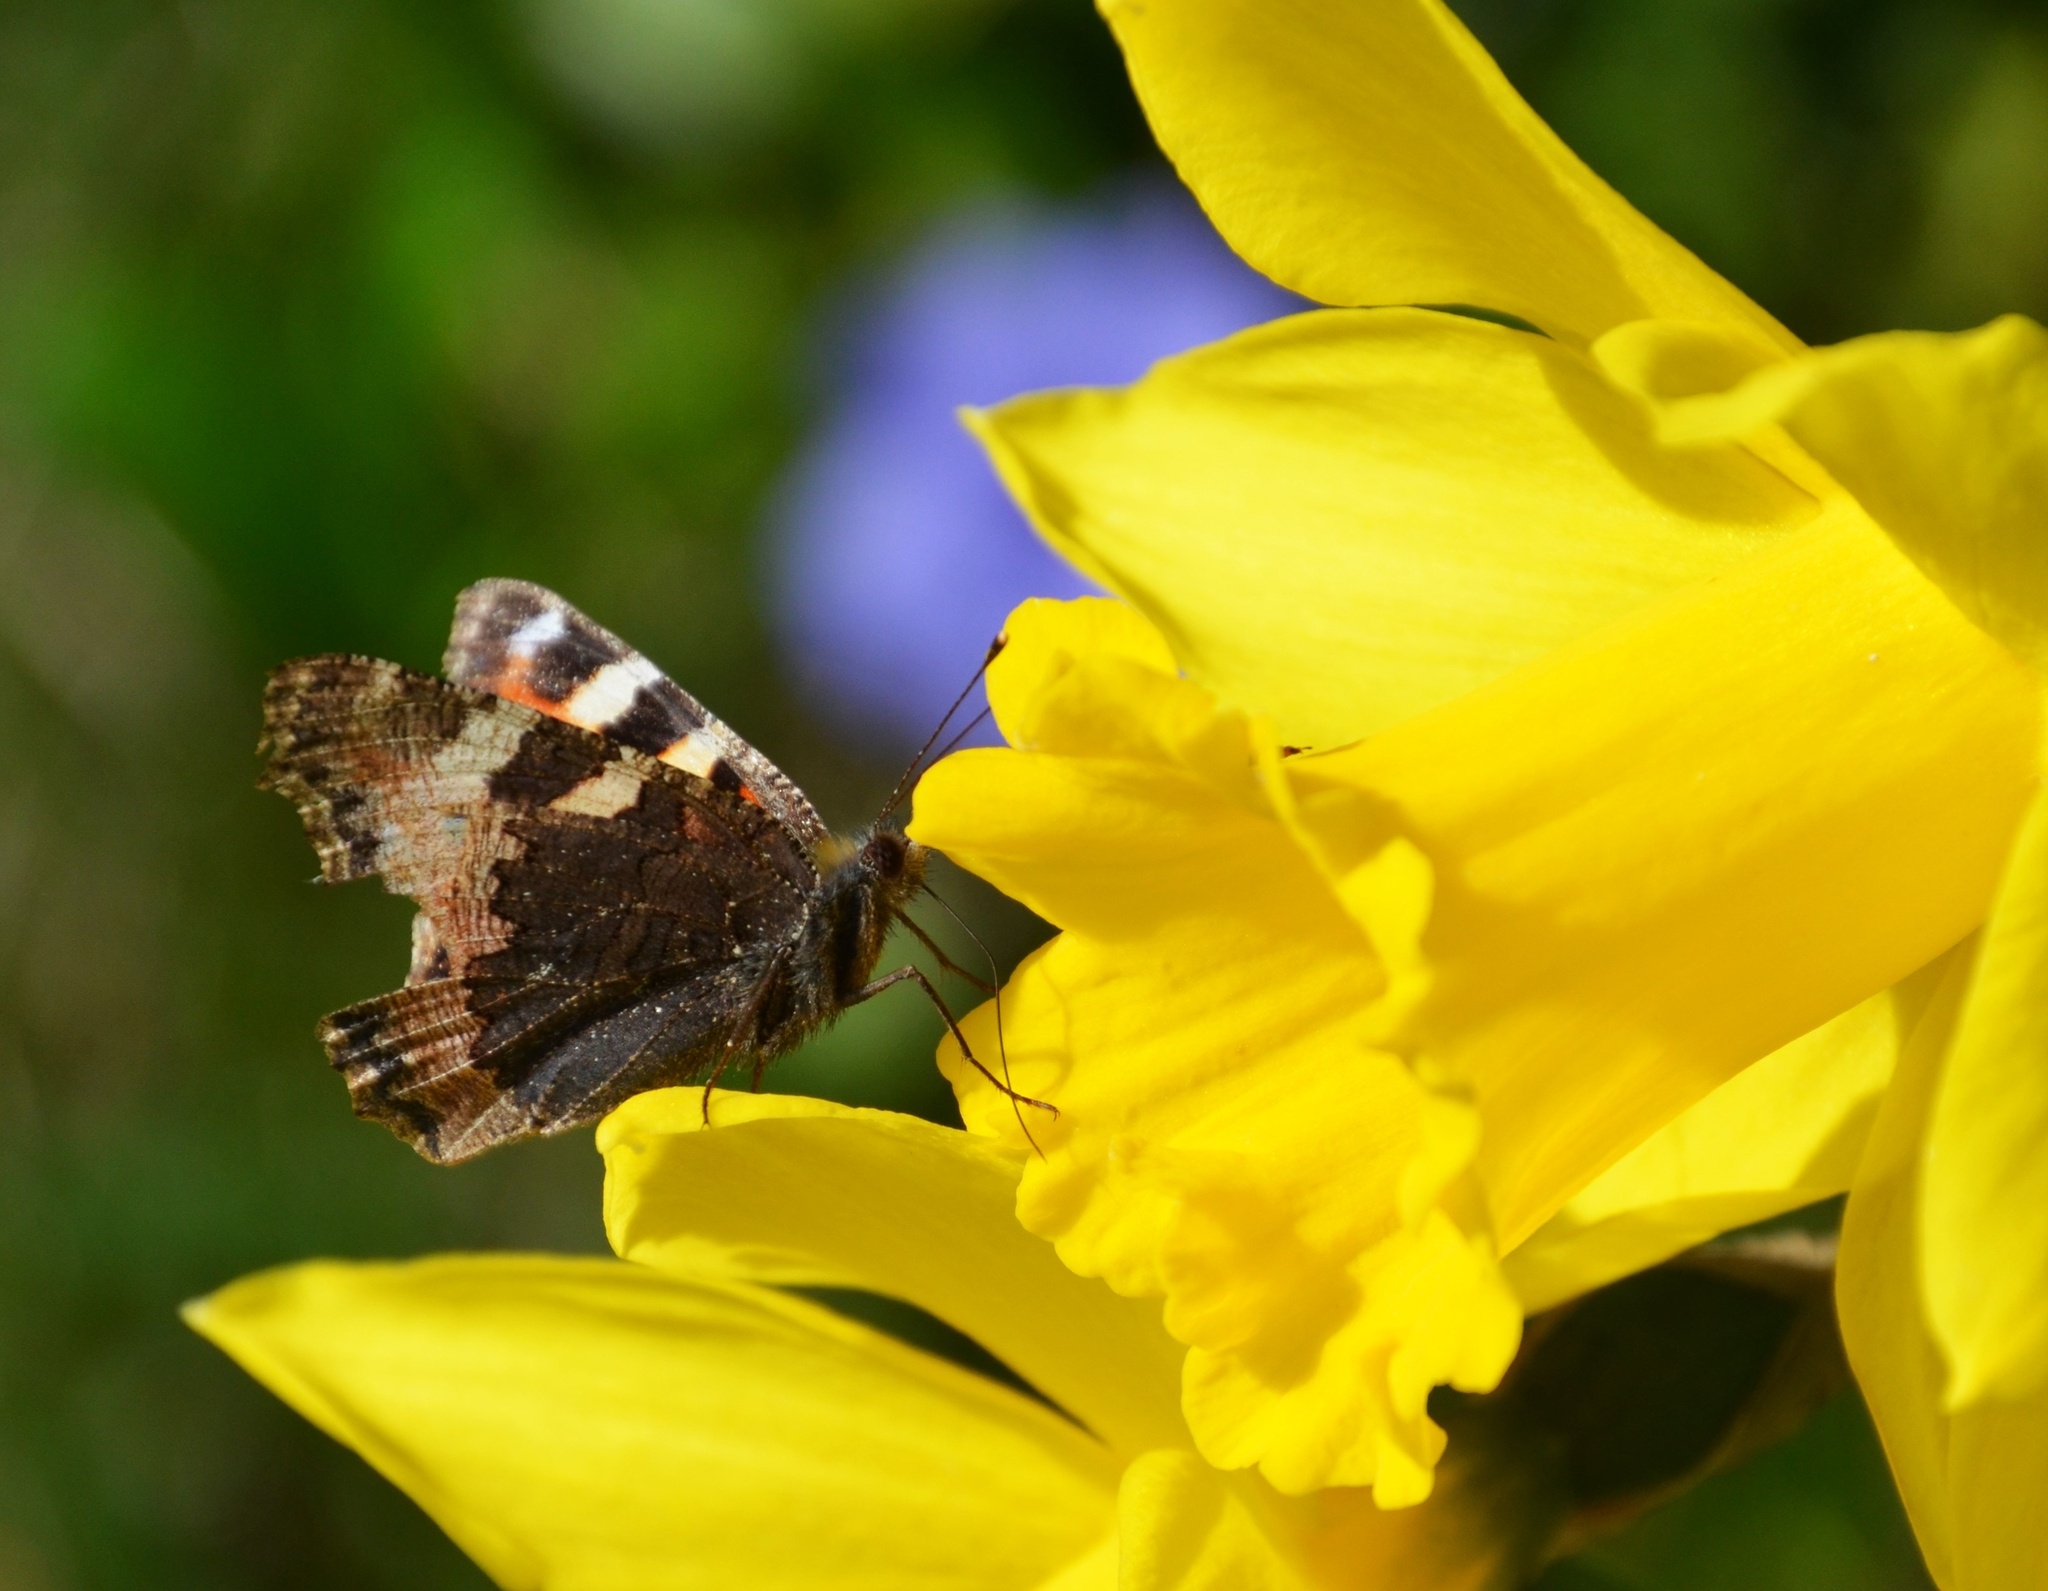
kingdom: Animalia
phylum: Arthropoda
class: Insecta
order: Lepidoptera
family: Nymphalidae
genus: Aglais
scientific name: Aglais urticae
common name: Small tortoiseshell
